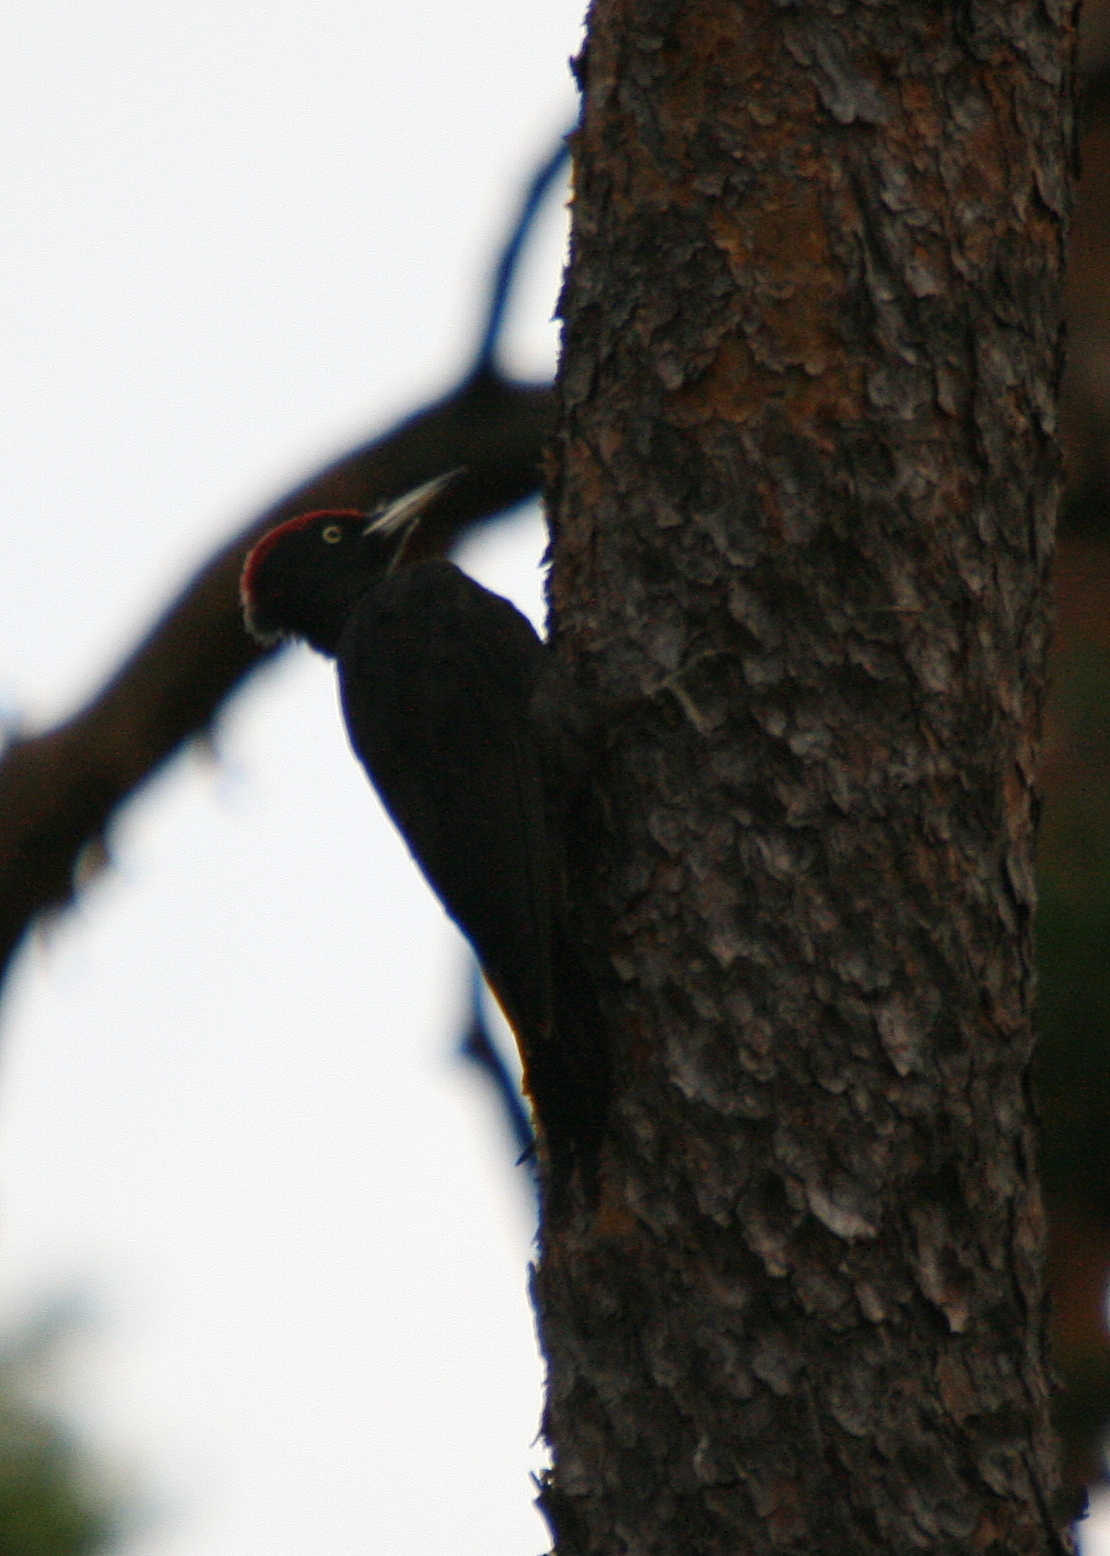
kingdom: Animalia
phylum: Chordata
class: Aves
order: Piciformes
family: Picidae
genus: Dryocopus
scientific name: Dryocopus martius
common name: Black woodpecker
